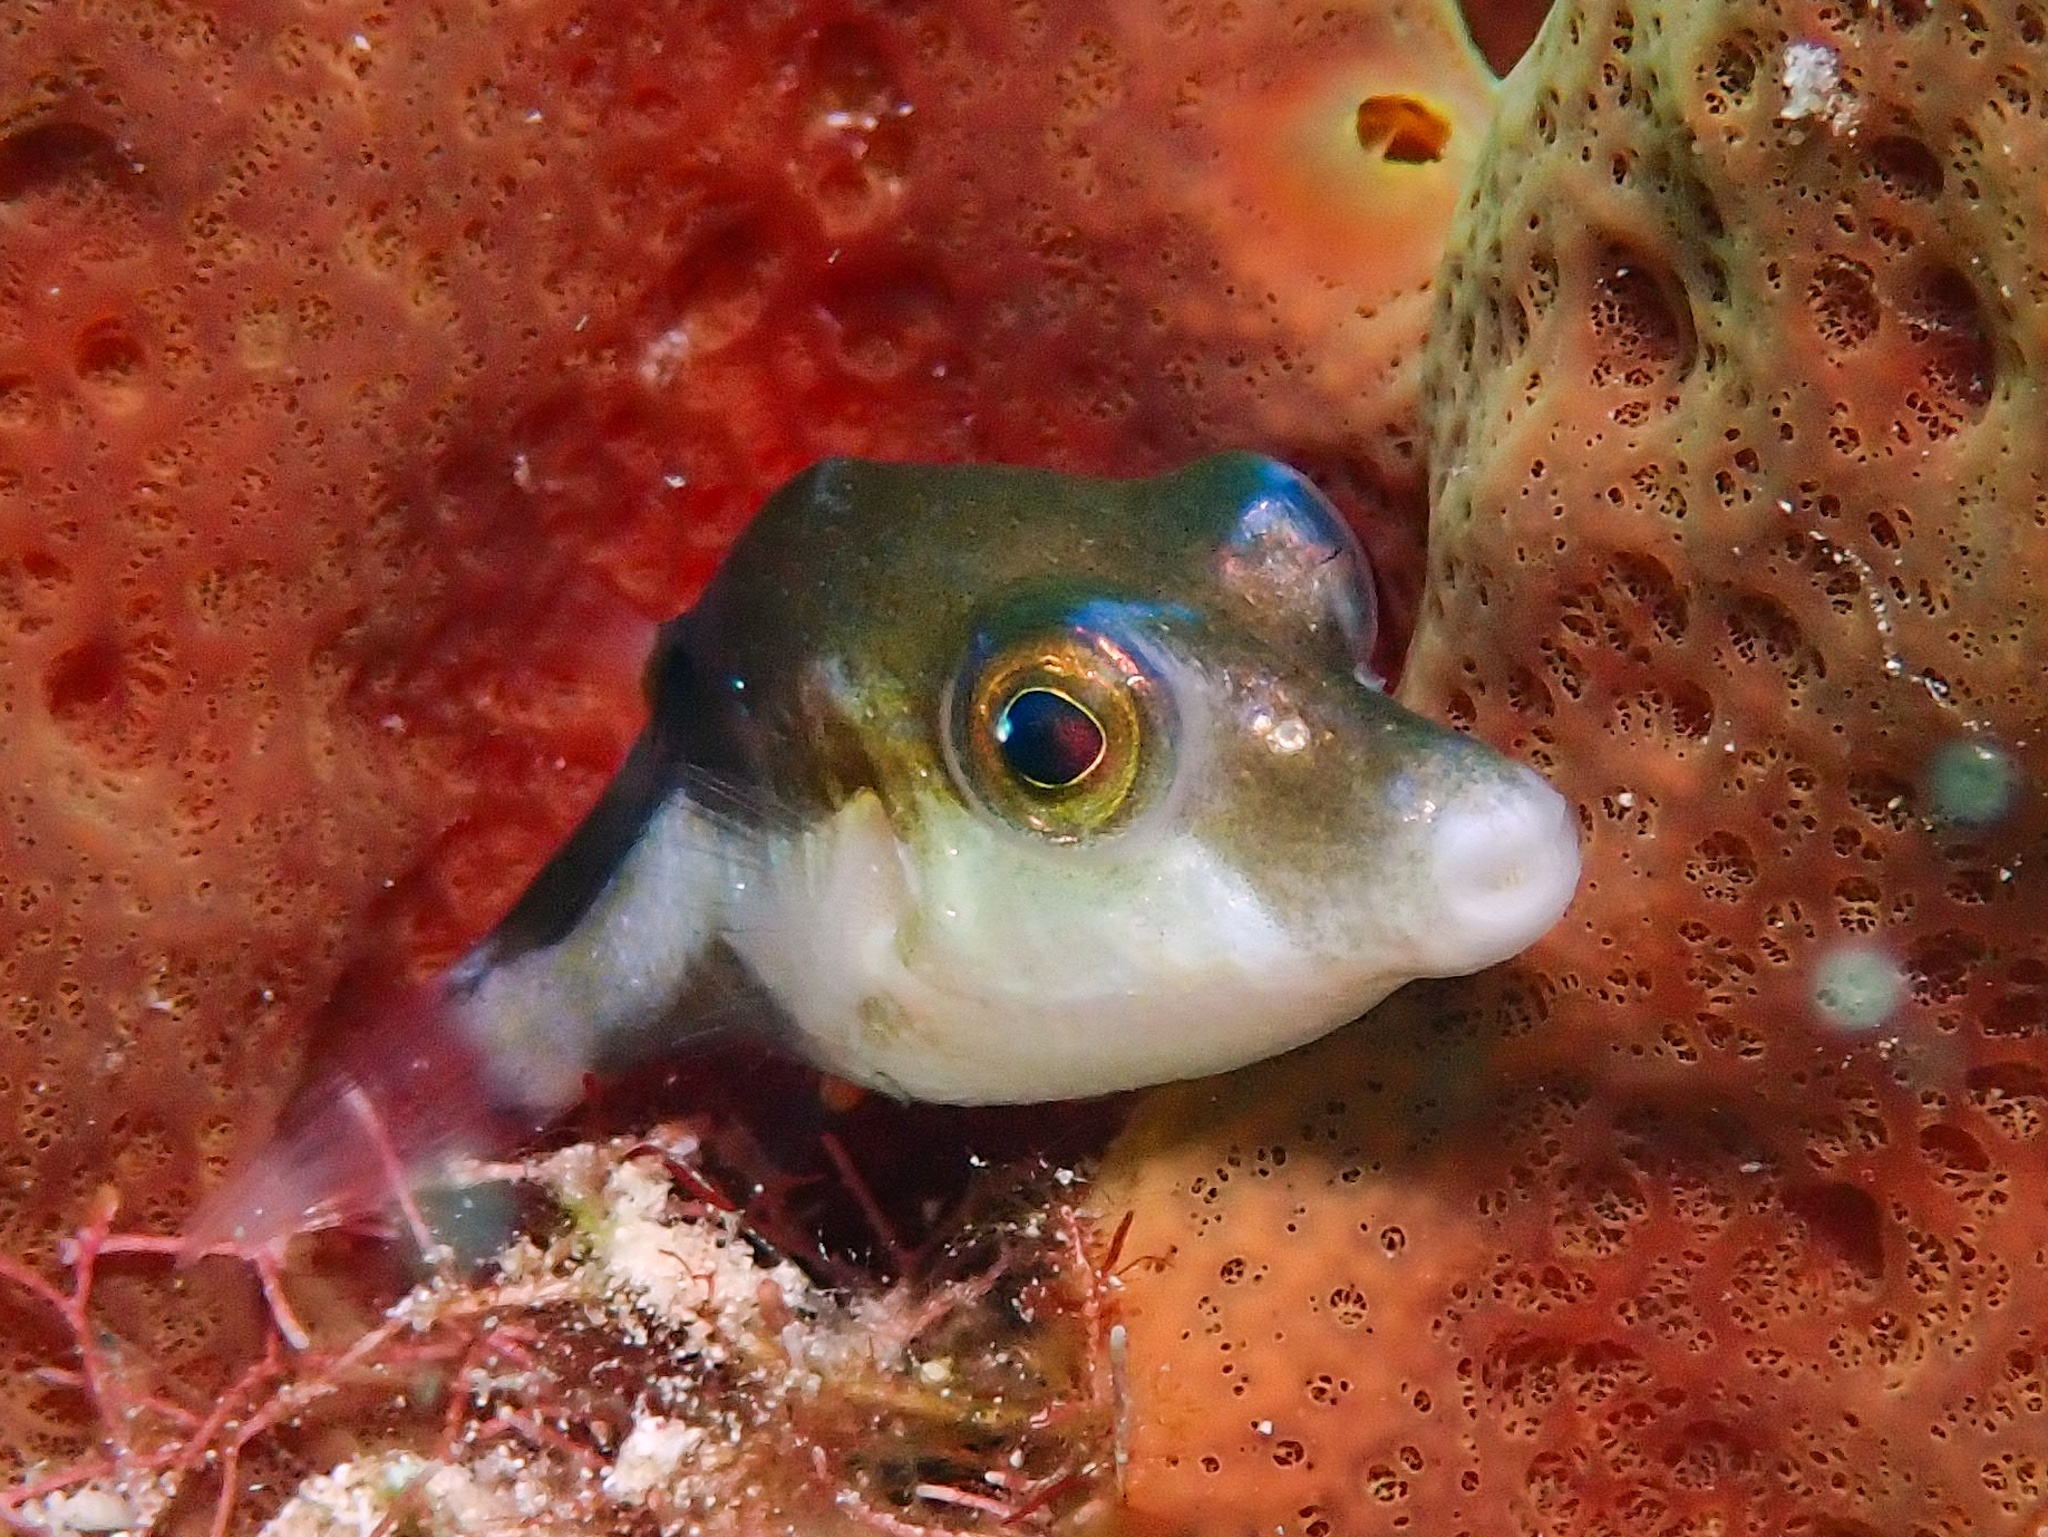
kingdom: Animalia
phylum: Chordata
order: Tetraodontiformes
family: Tetraodontidae
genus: Canthigaster
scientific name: Canthigaster rostrata
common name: Caribbean sharpnose-puffer
